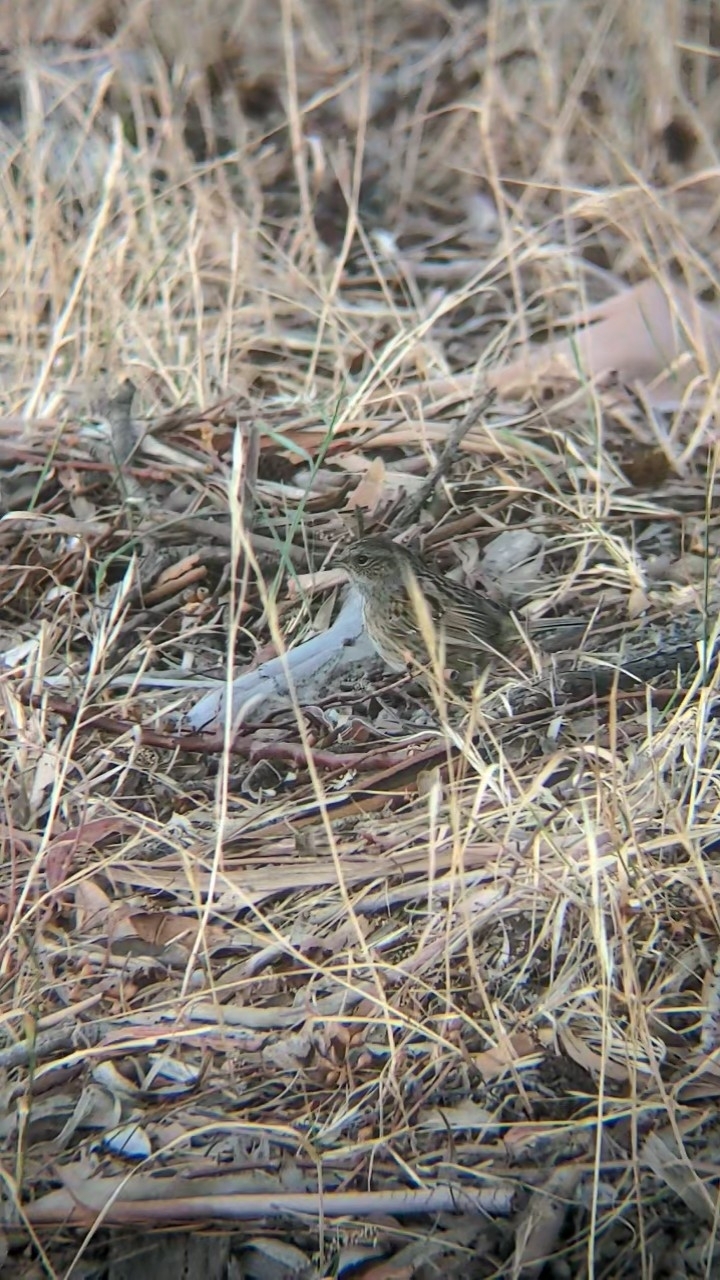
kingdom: Animalia
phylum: Chordata
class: Aves
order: Passeriformes
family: Prunellidae
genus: Prunella
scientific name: Prunella modularis
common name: Dunnock
